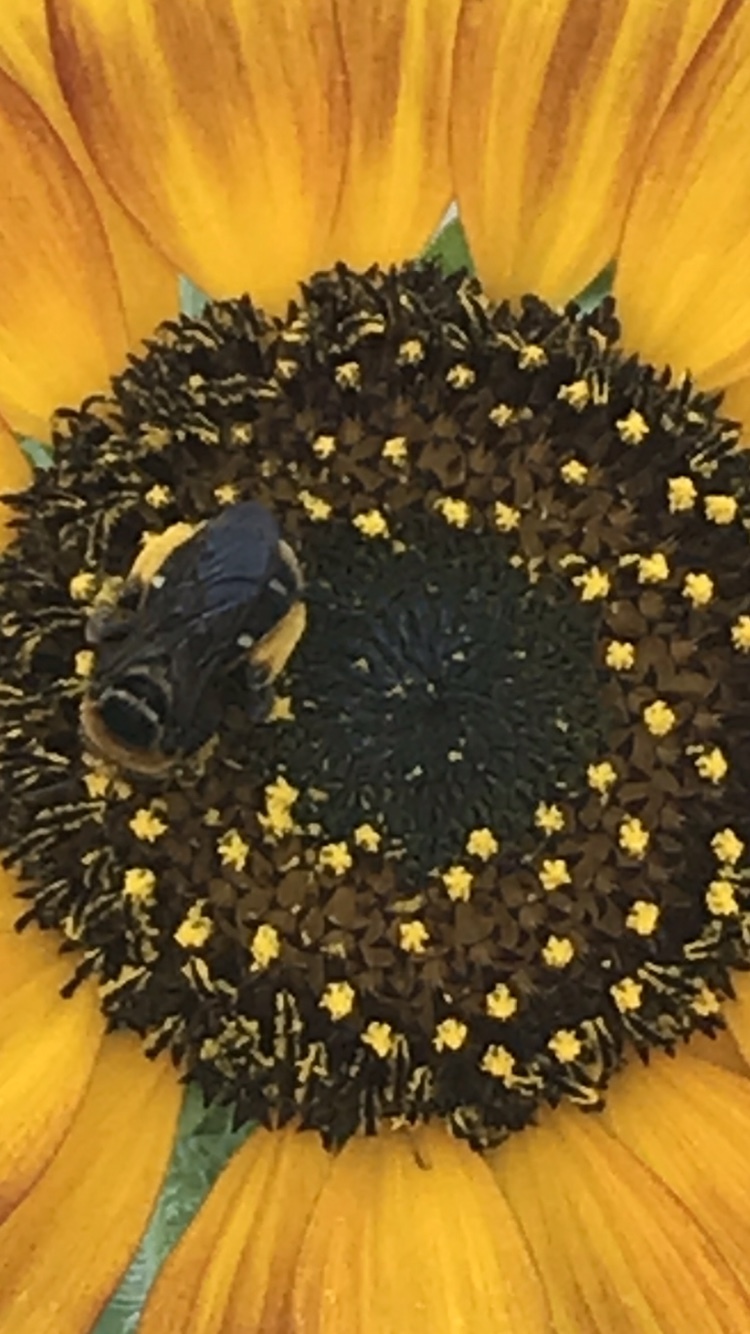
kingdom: Animalia
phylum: Arthropoda
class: Insecta
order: Hymenoptera
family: Apidae
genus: Svastra
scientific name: Svastra obliqua
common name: Oblique longhorn
